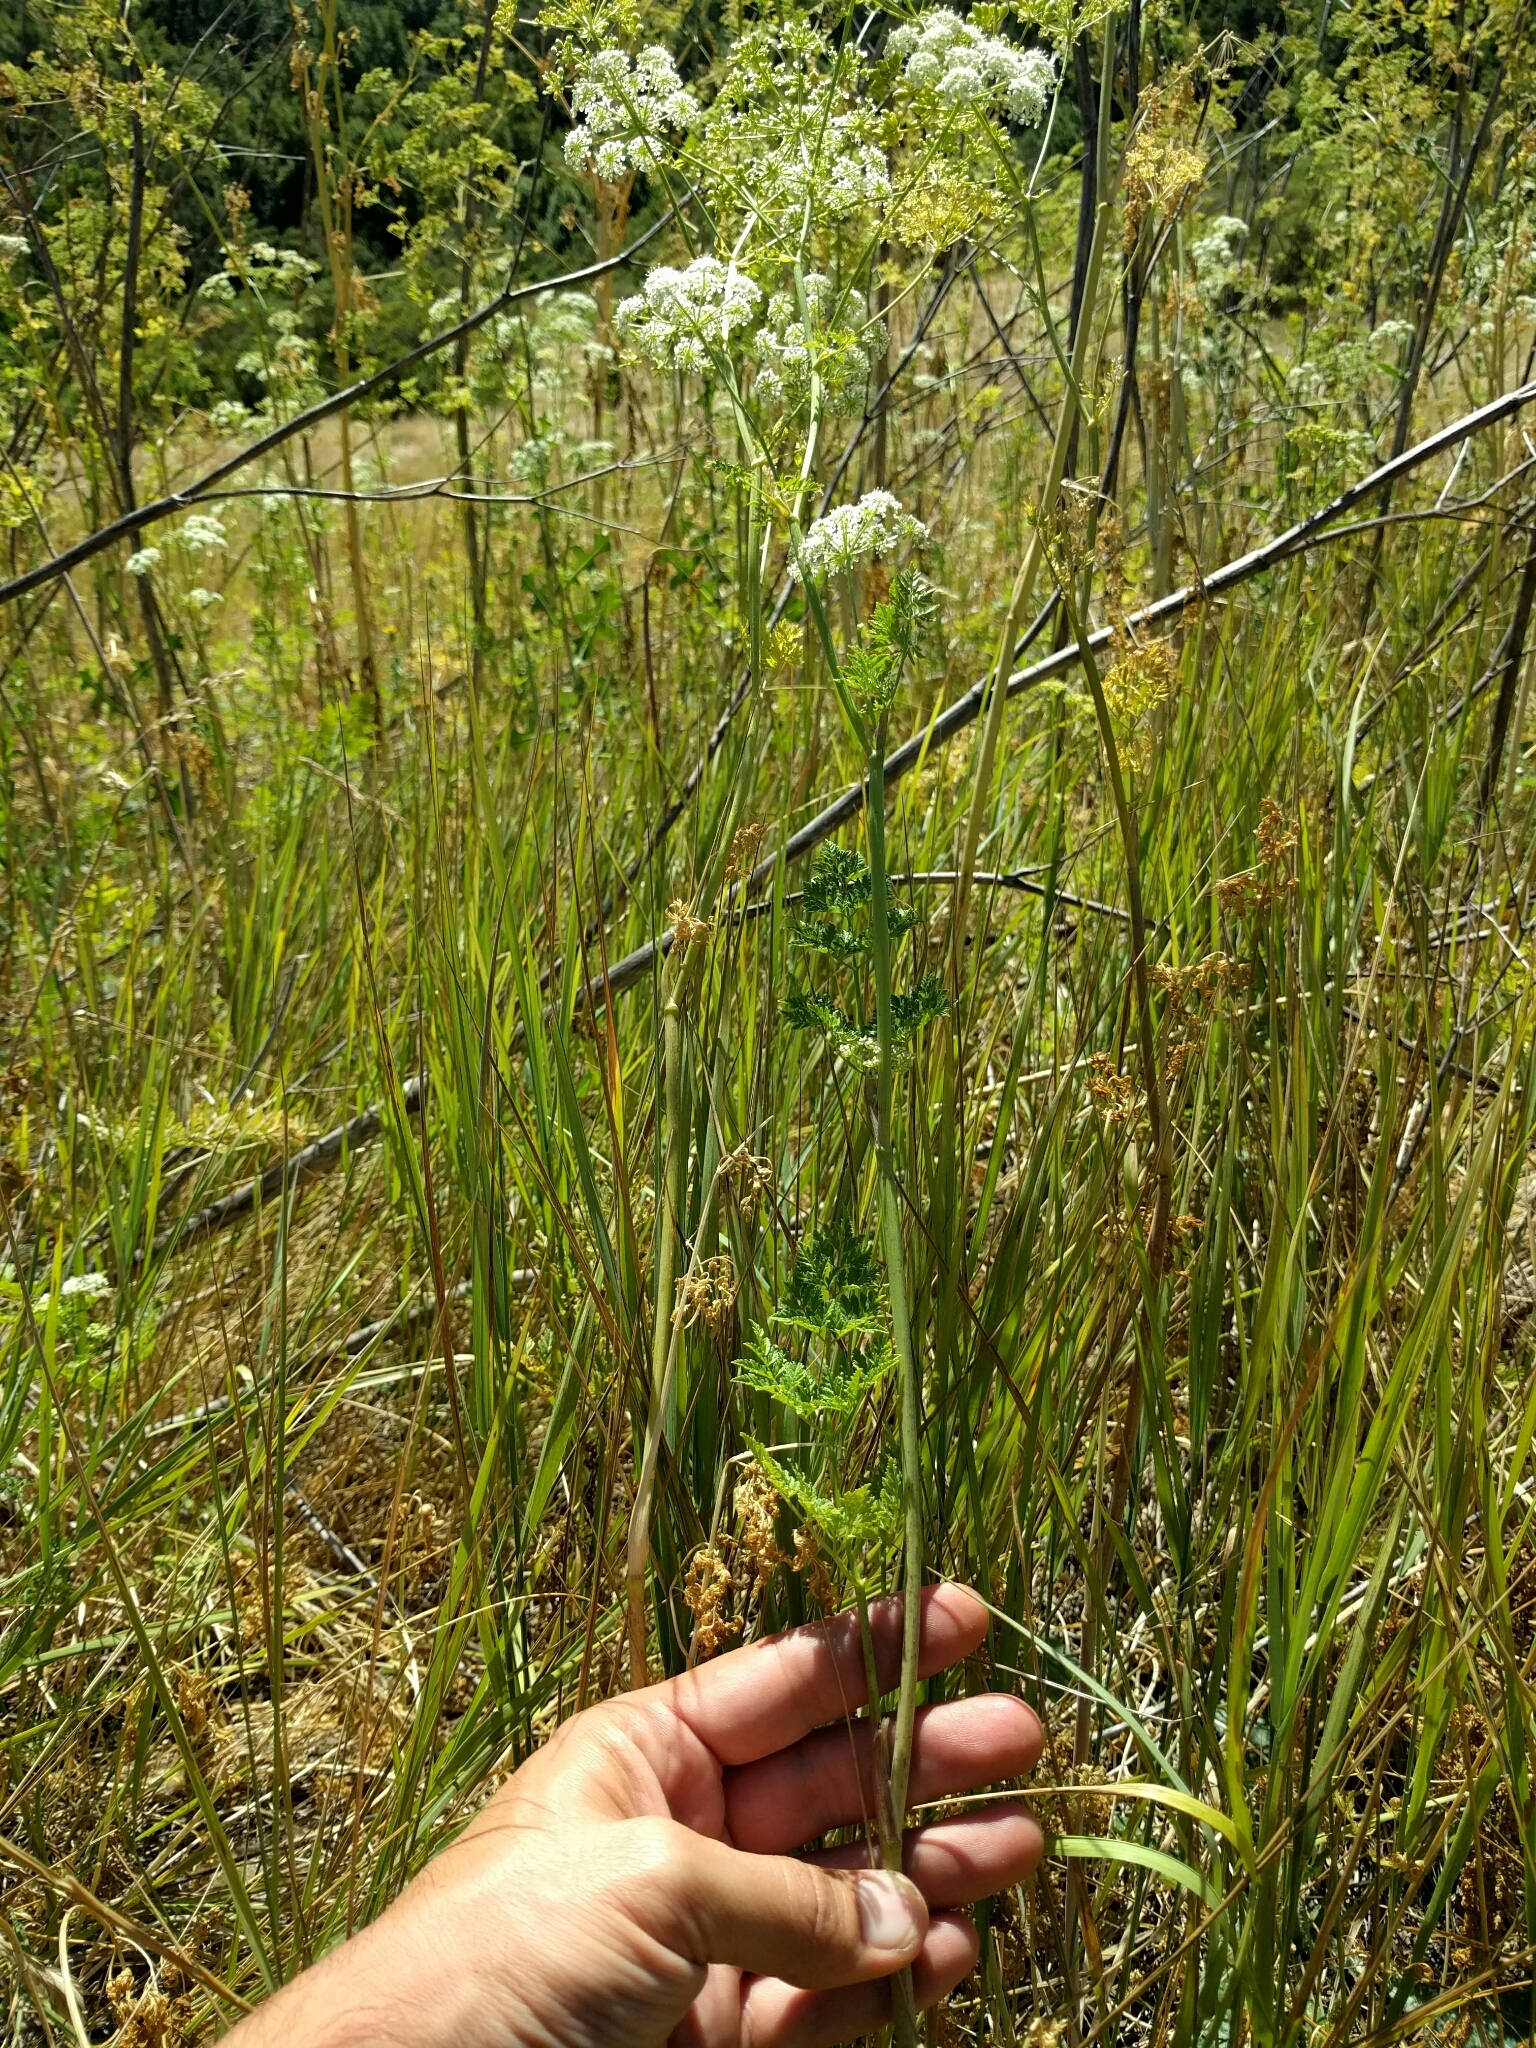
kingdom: Plantae
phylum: Tracheophyta
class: Magnoliopsida
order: Apiales
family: Apiaceae
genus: Conium
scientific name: Conium maculatum
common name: Hemlock
